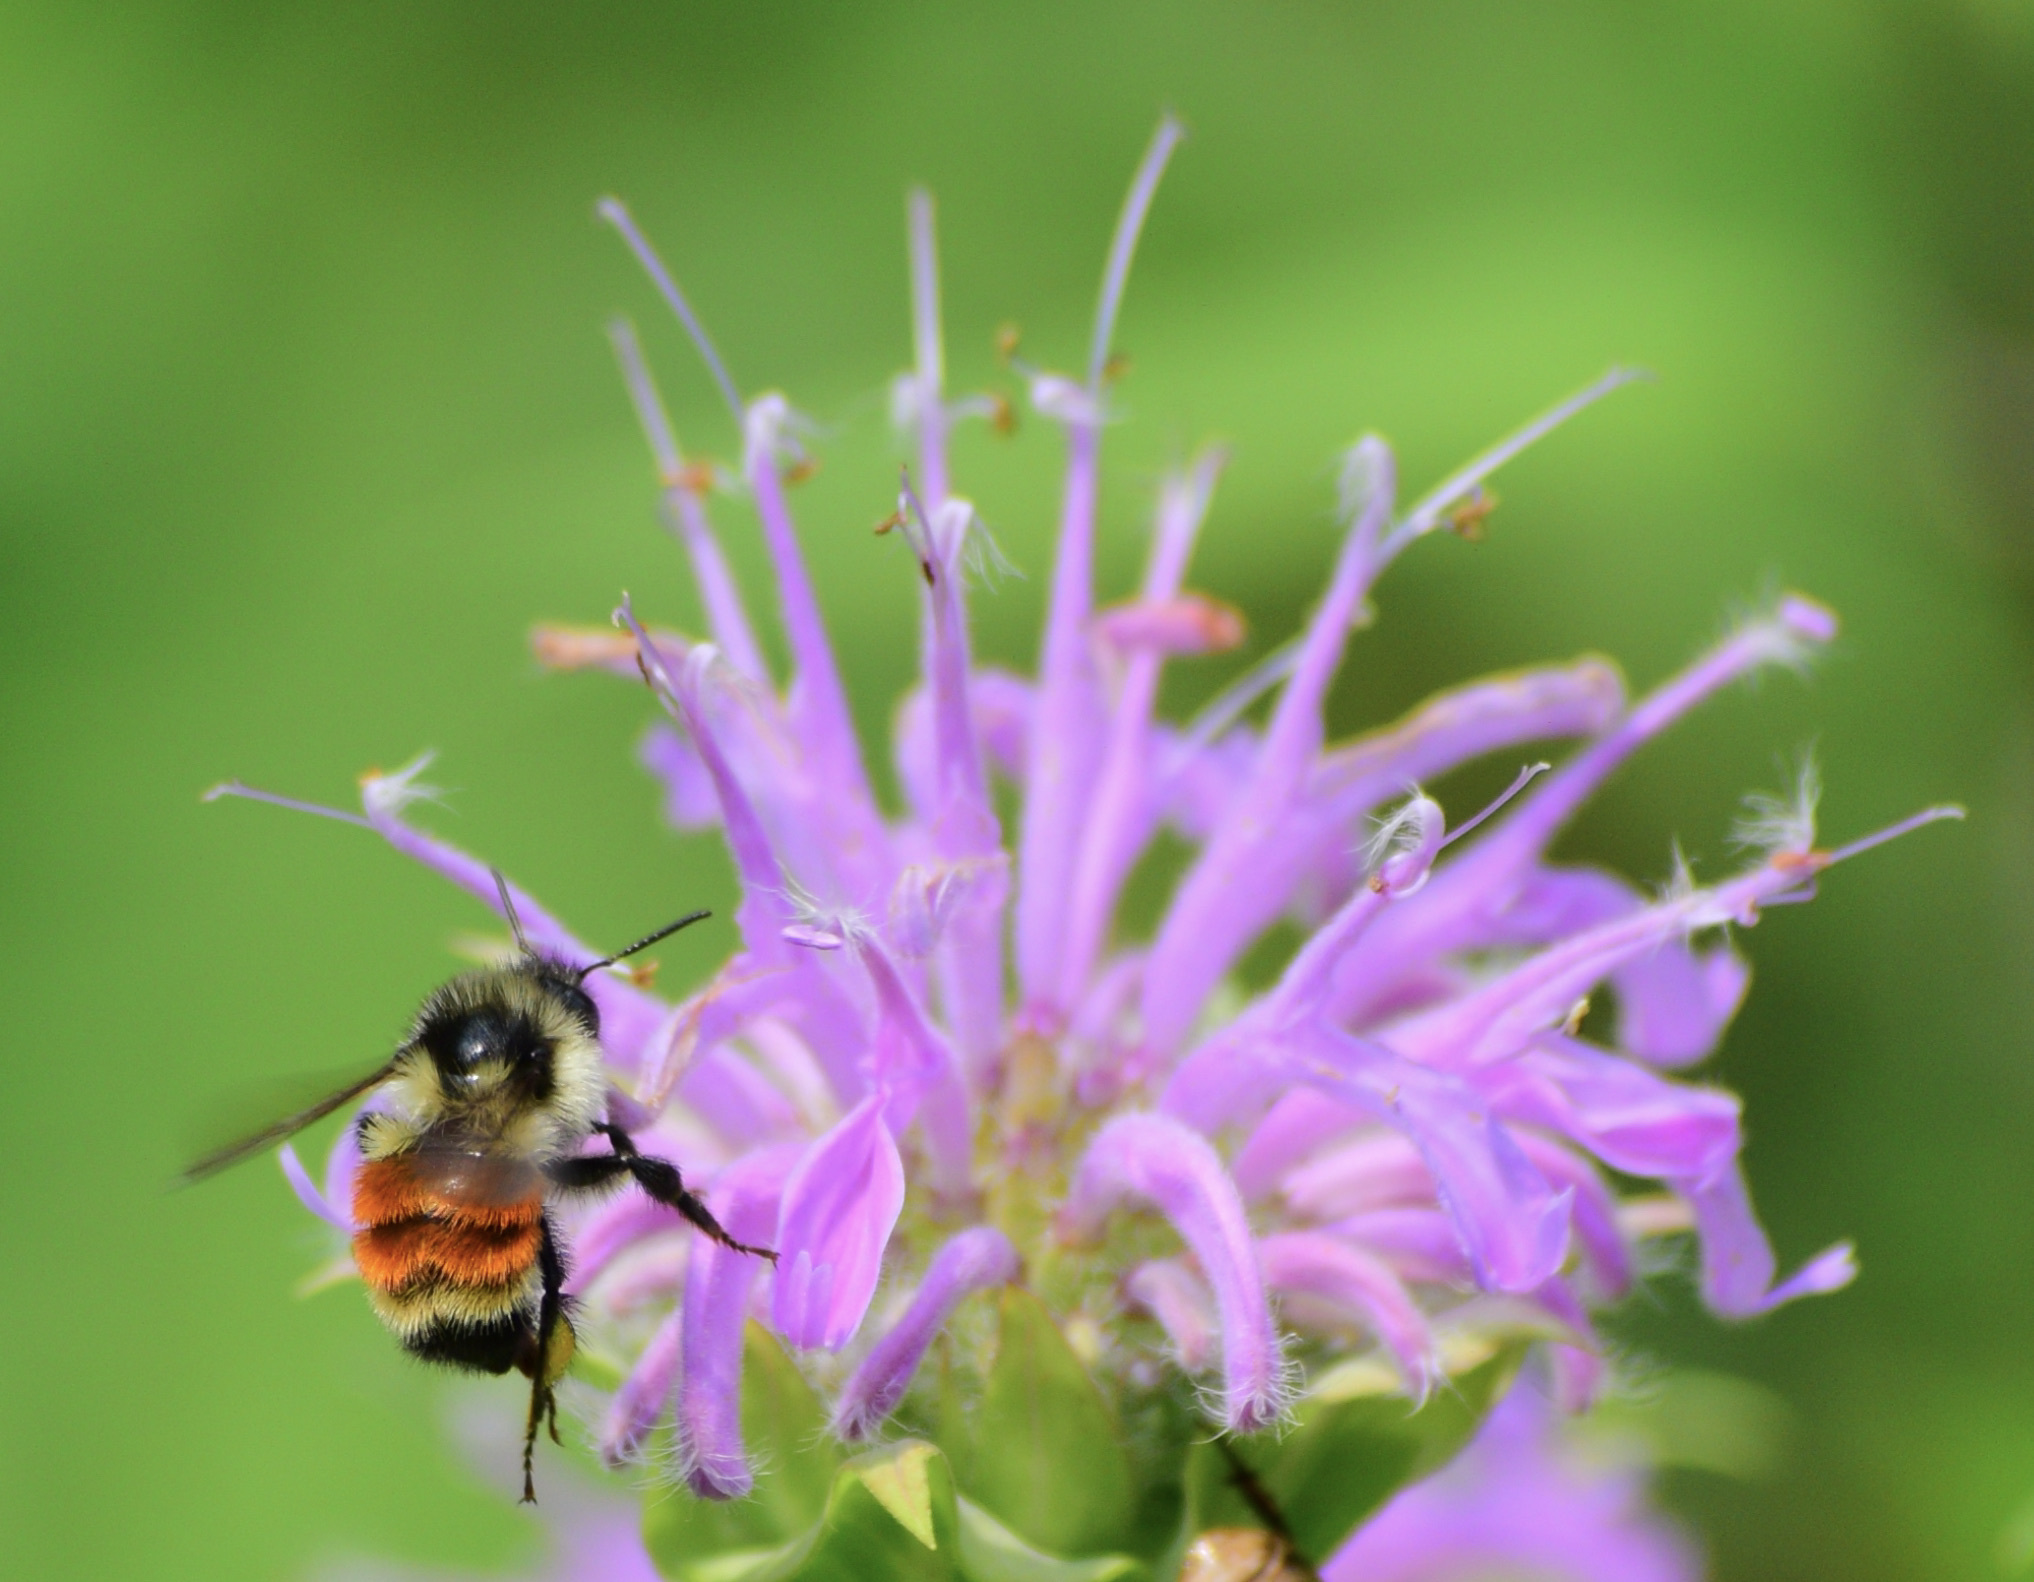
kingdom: Animalia
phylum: Arthropoda
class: Insecta
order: Hymenoptera
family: Apidae
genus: Bombus
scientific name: Bombus ternarius
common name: Tri-colored bumble bee
